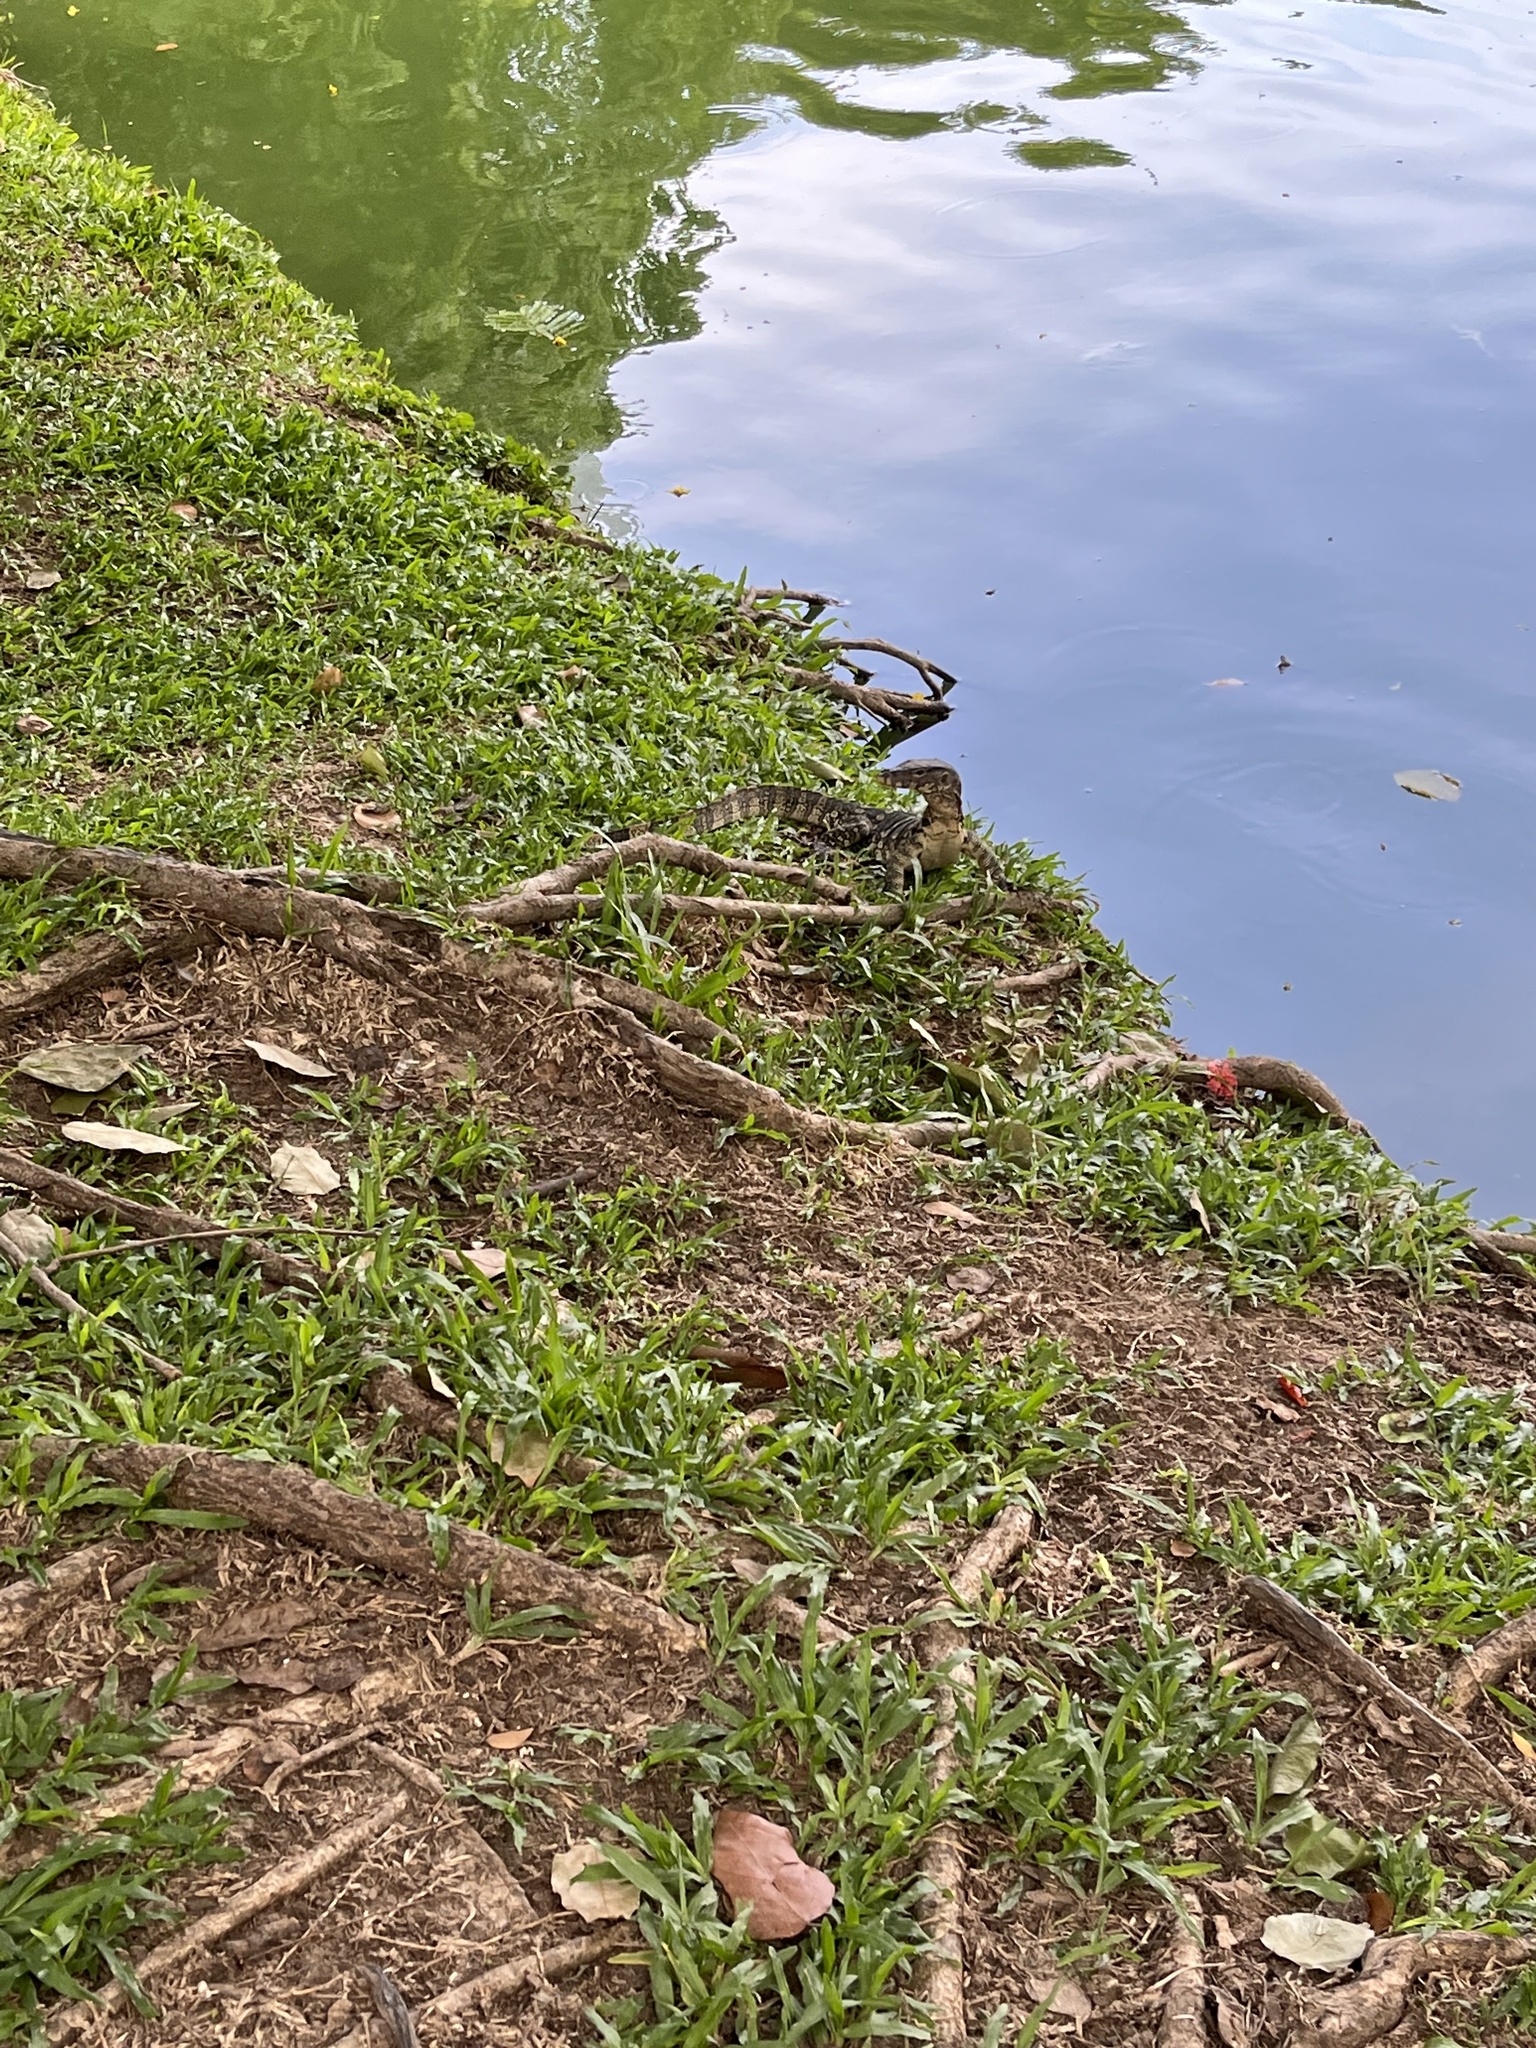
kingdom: Animalia
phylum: Chordata
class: Squamata
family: Varanidae
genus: Varanus
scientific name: Varanus salvator
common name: Common water monitor
